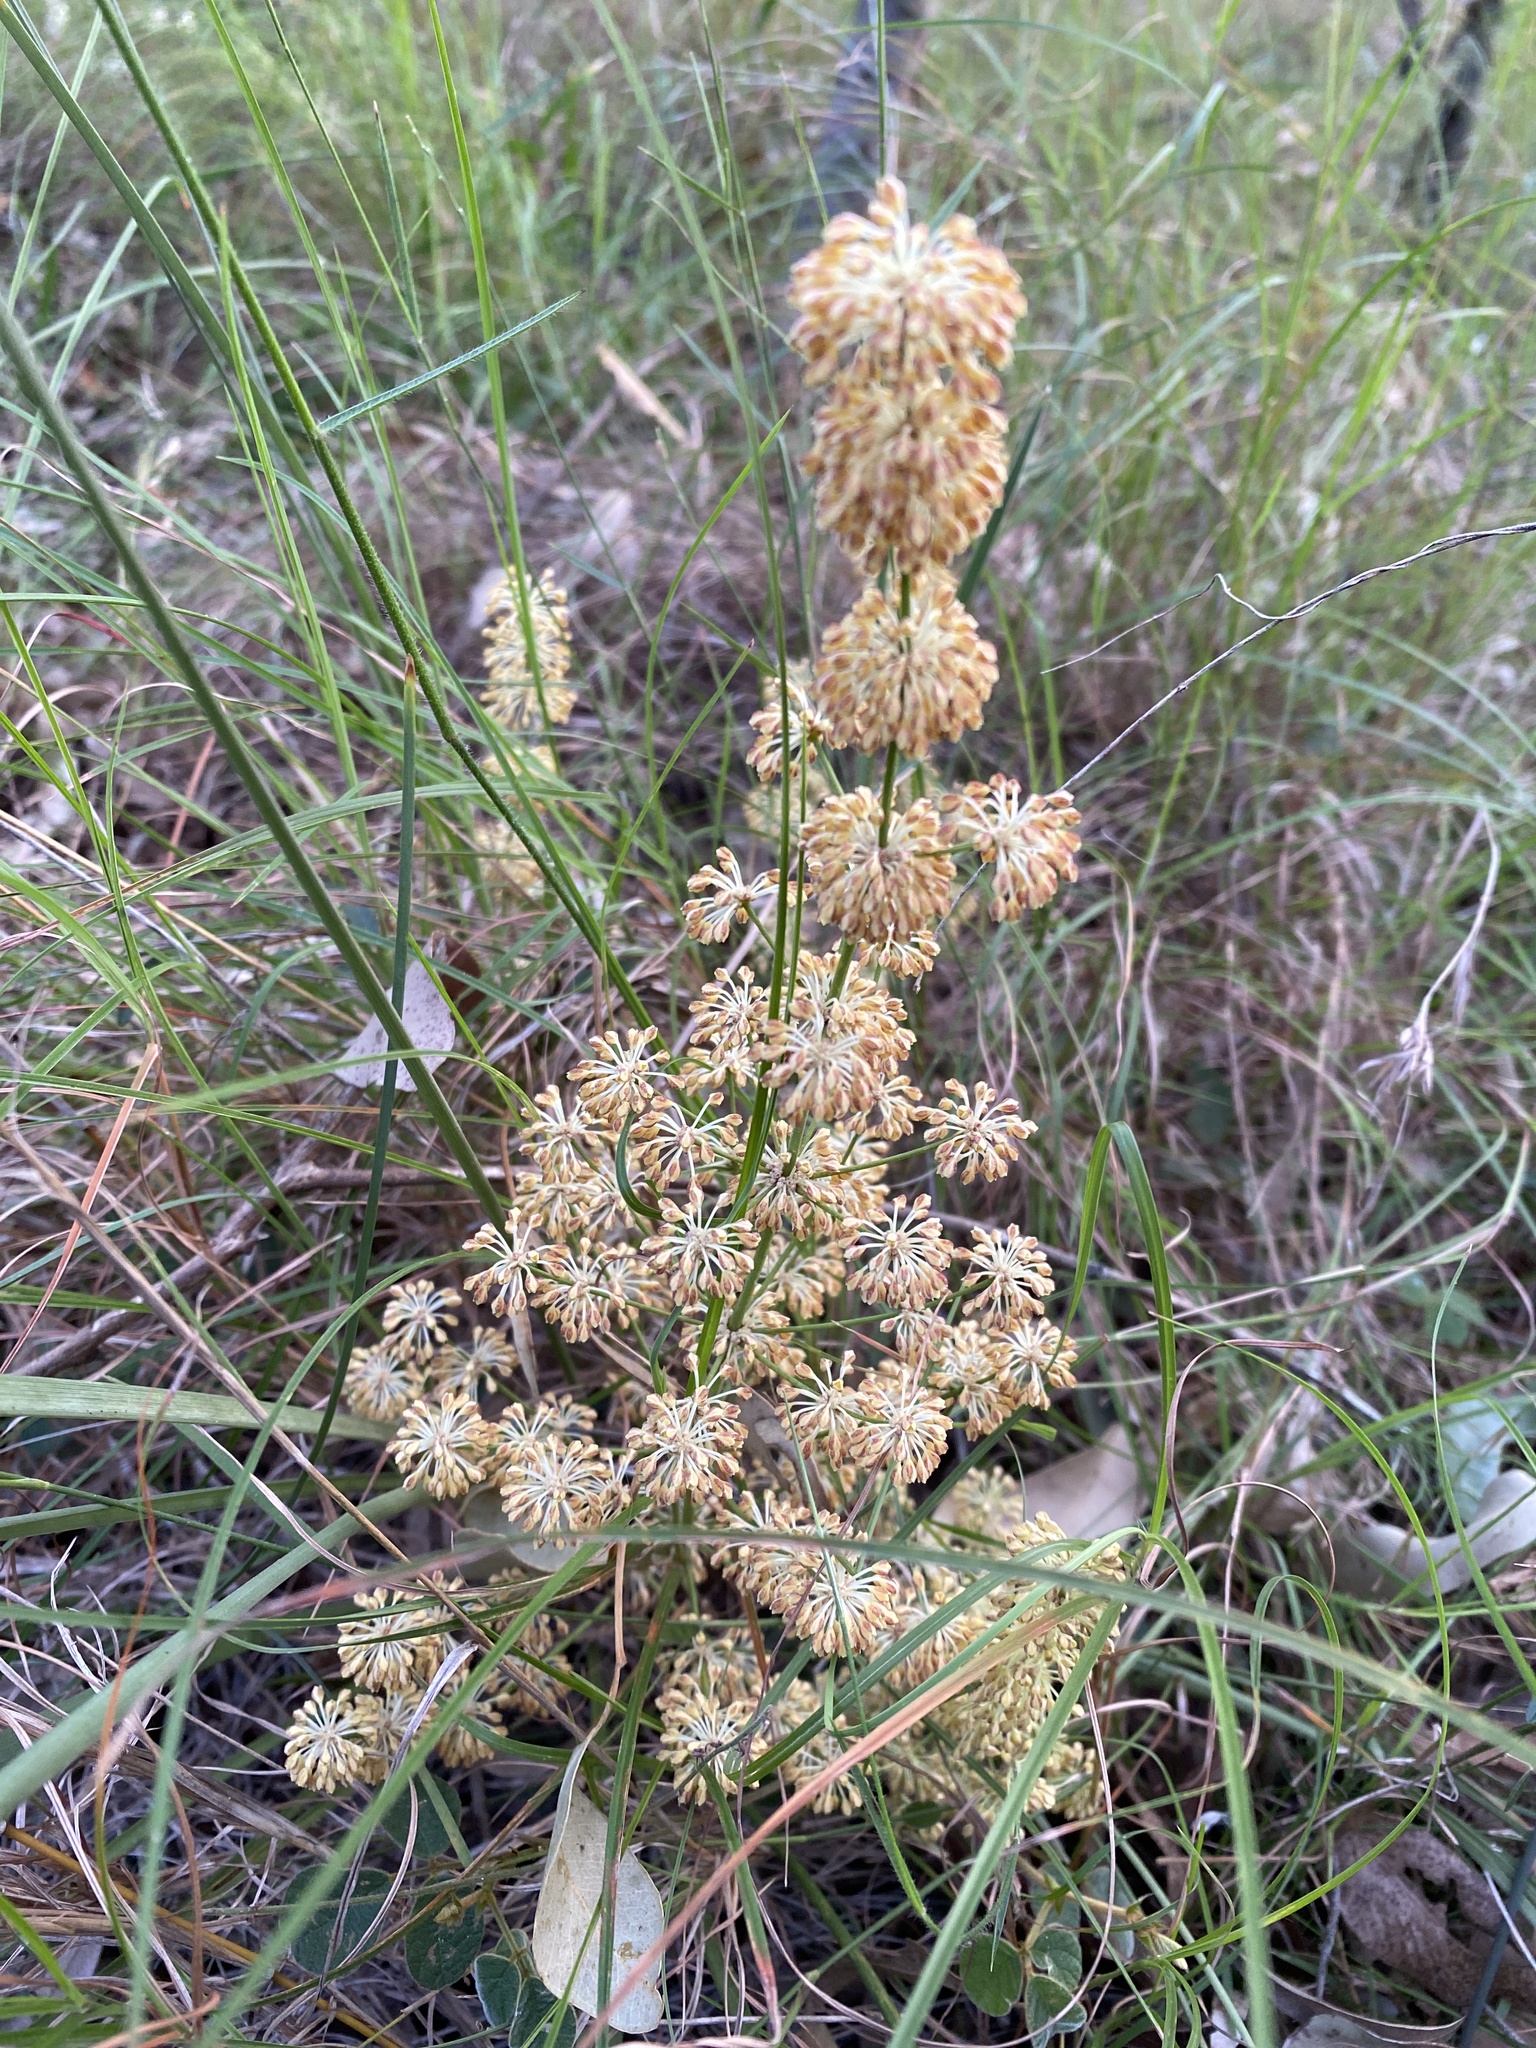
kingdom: Plantae
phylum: Tracheophyta
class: Liliopsida
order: Asparagales
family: Asparagaceae
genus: Lomandra
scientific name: Lomandra multiflora
